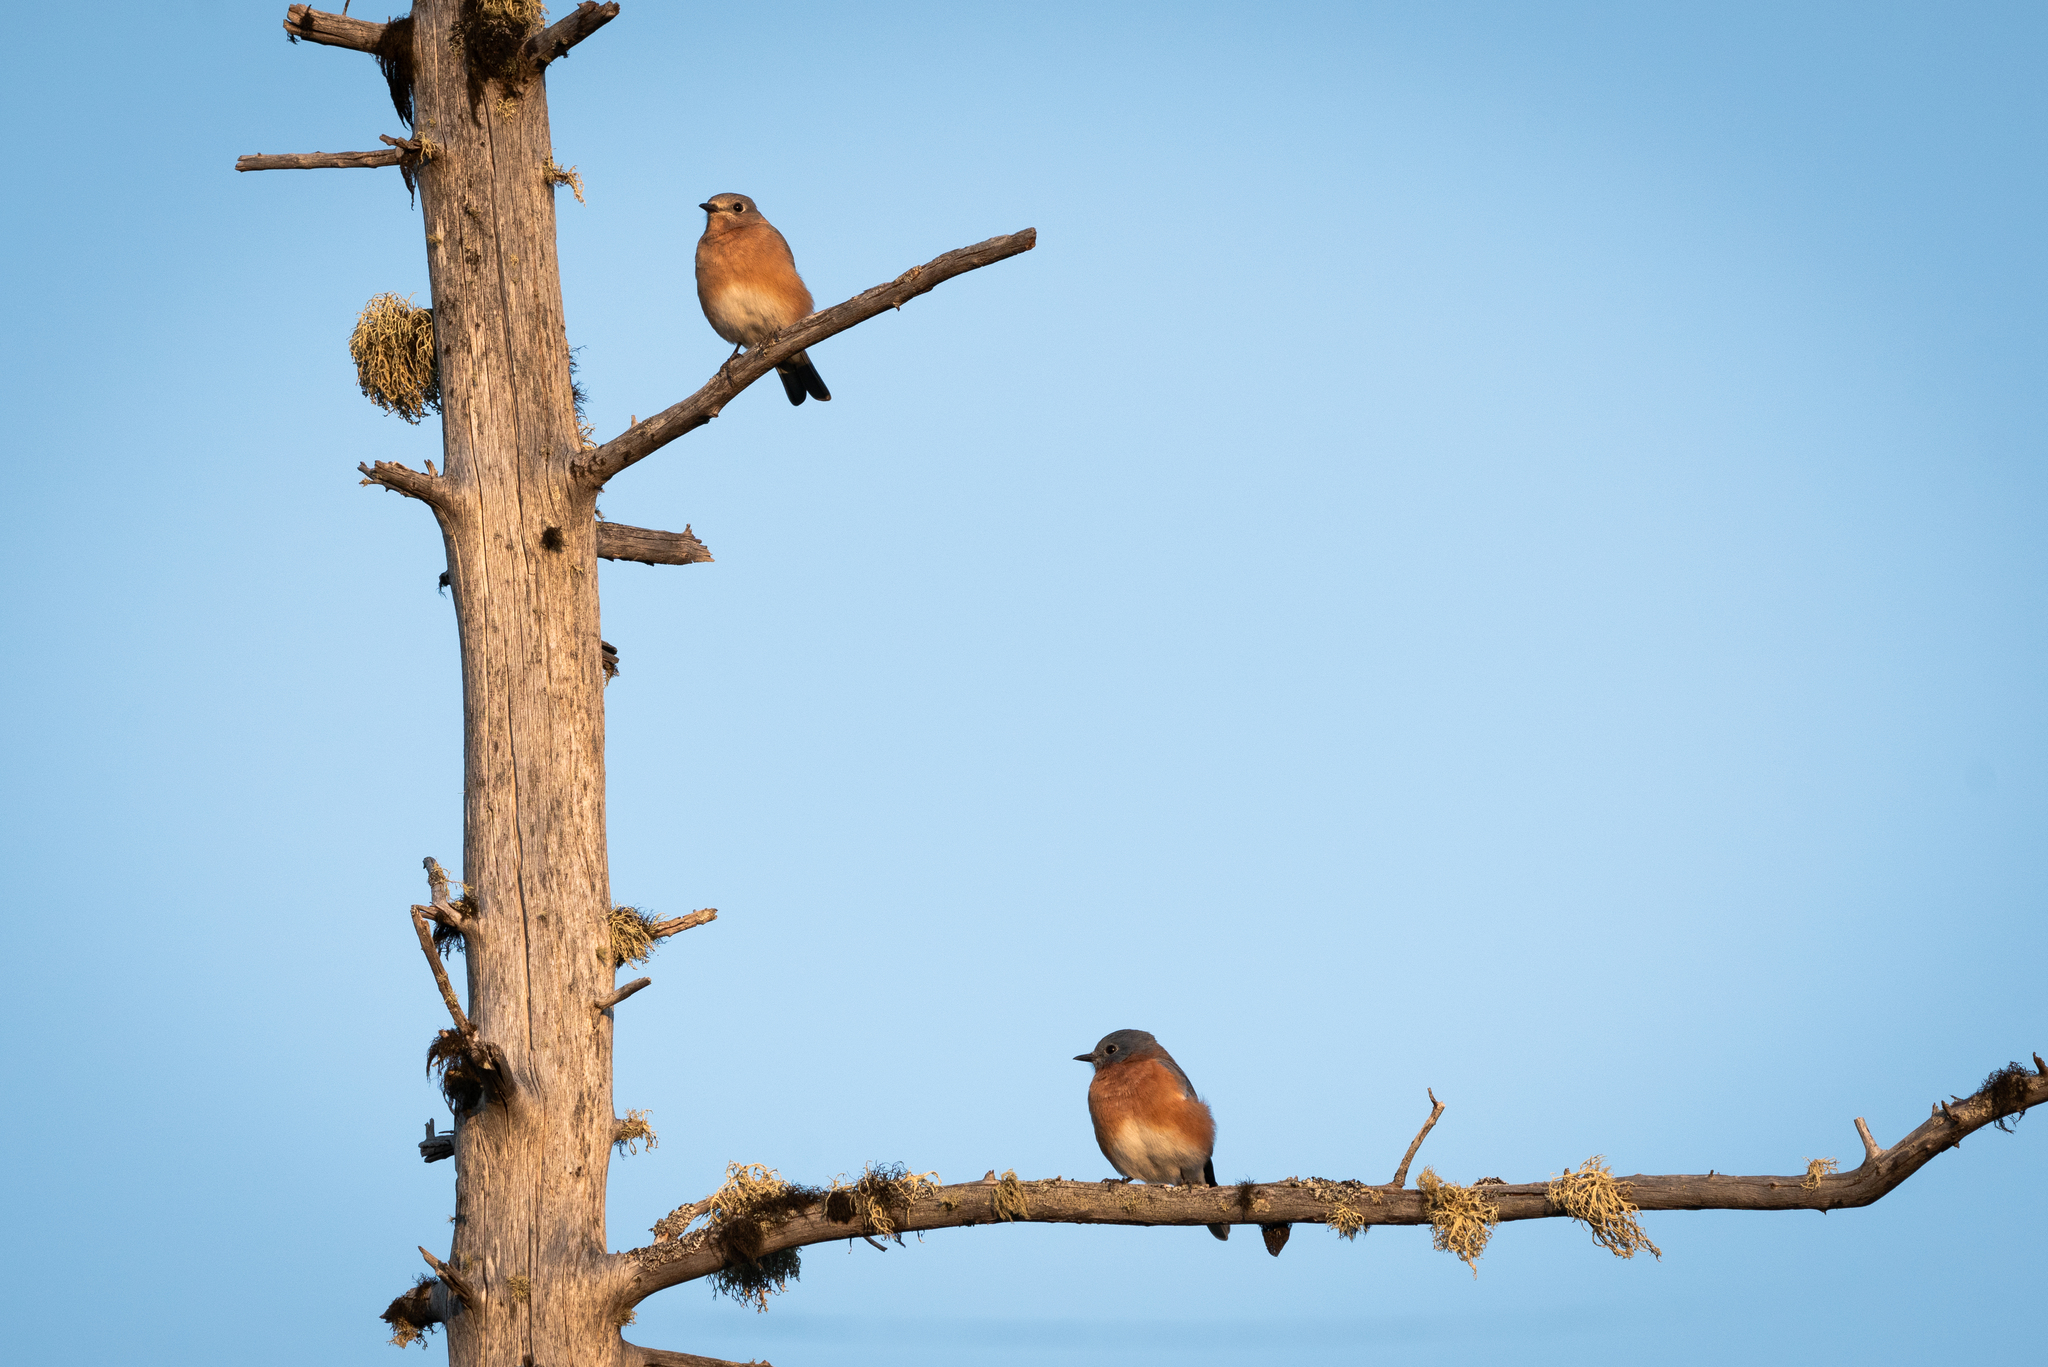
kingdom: Animalia
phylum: Chordata
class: Aves
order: Passeriformes
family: Turdidae
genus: Sialia
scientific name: Sialia sialis
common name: Eastern bluebird
